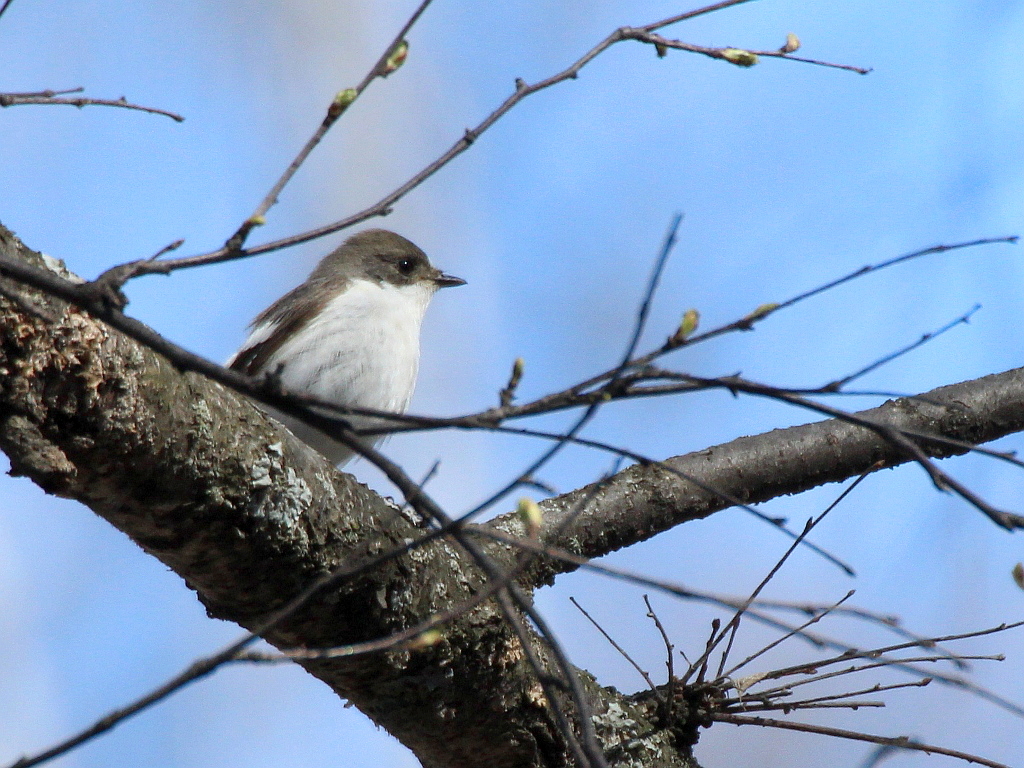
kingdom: Animalia
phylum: Chordata
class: Aves
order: Passeriformes
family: Muscicapidae
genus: Ficedula
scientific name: Ficedula hypoleuca
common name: European pied flycatcher
